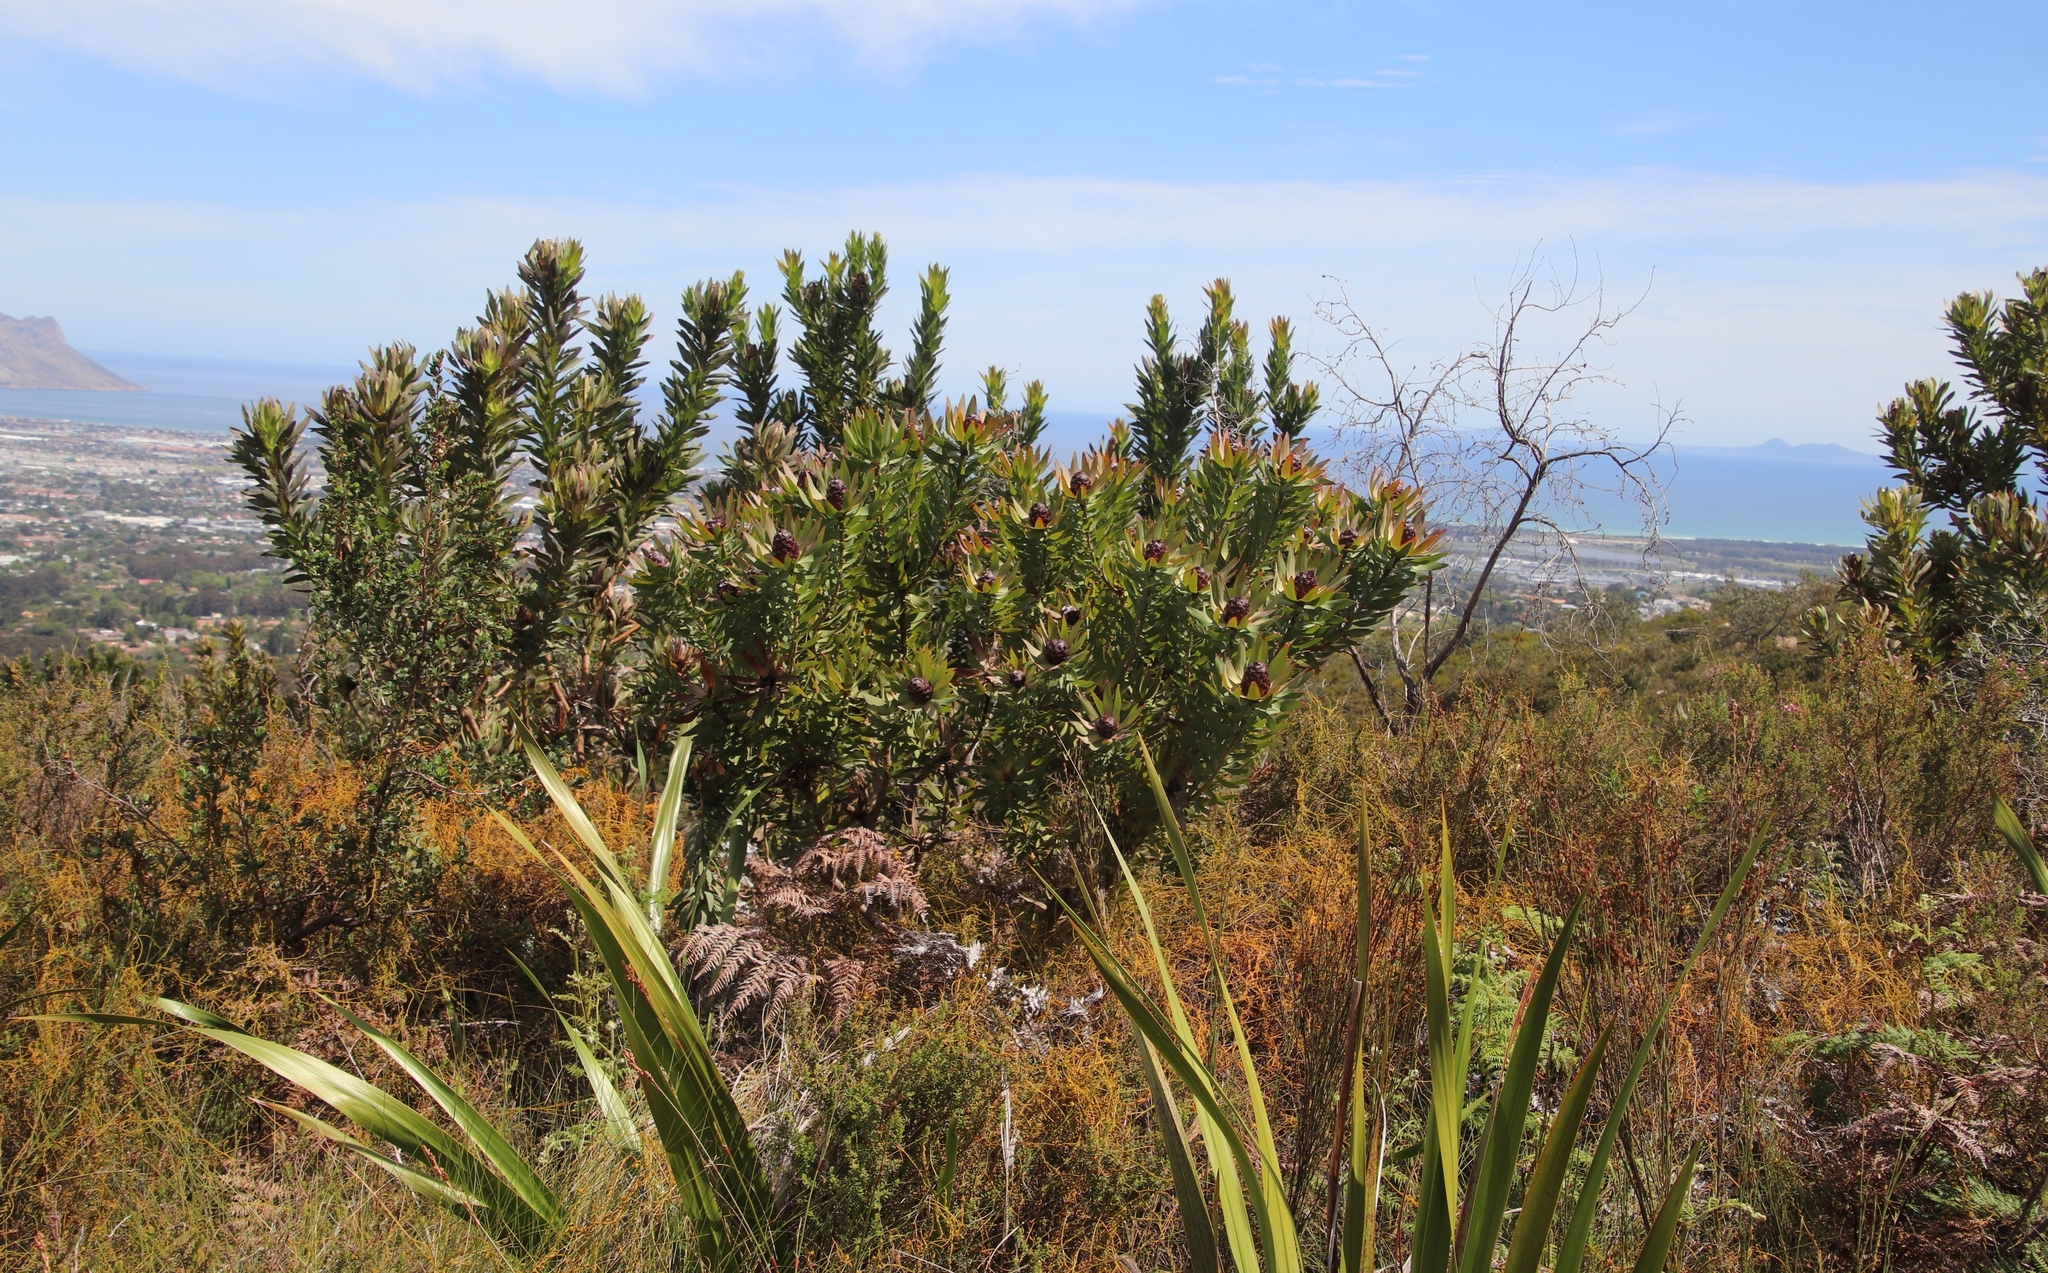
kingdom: Plantae
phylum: Tracheophyta
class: Magnoliopsida
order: Proteales
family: Proteaceae
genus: Protea
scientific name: Protea coronata
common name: Green sugarbush
